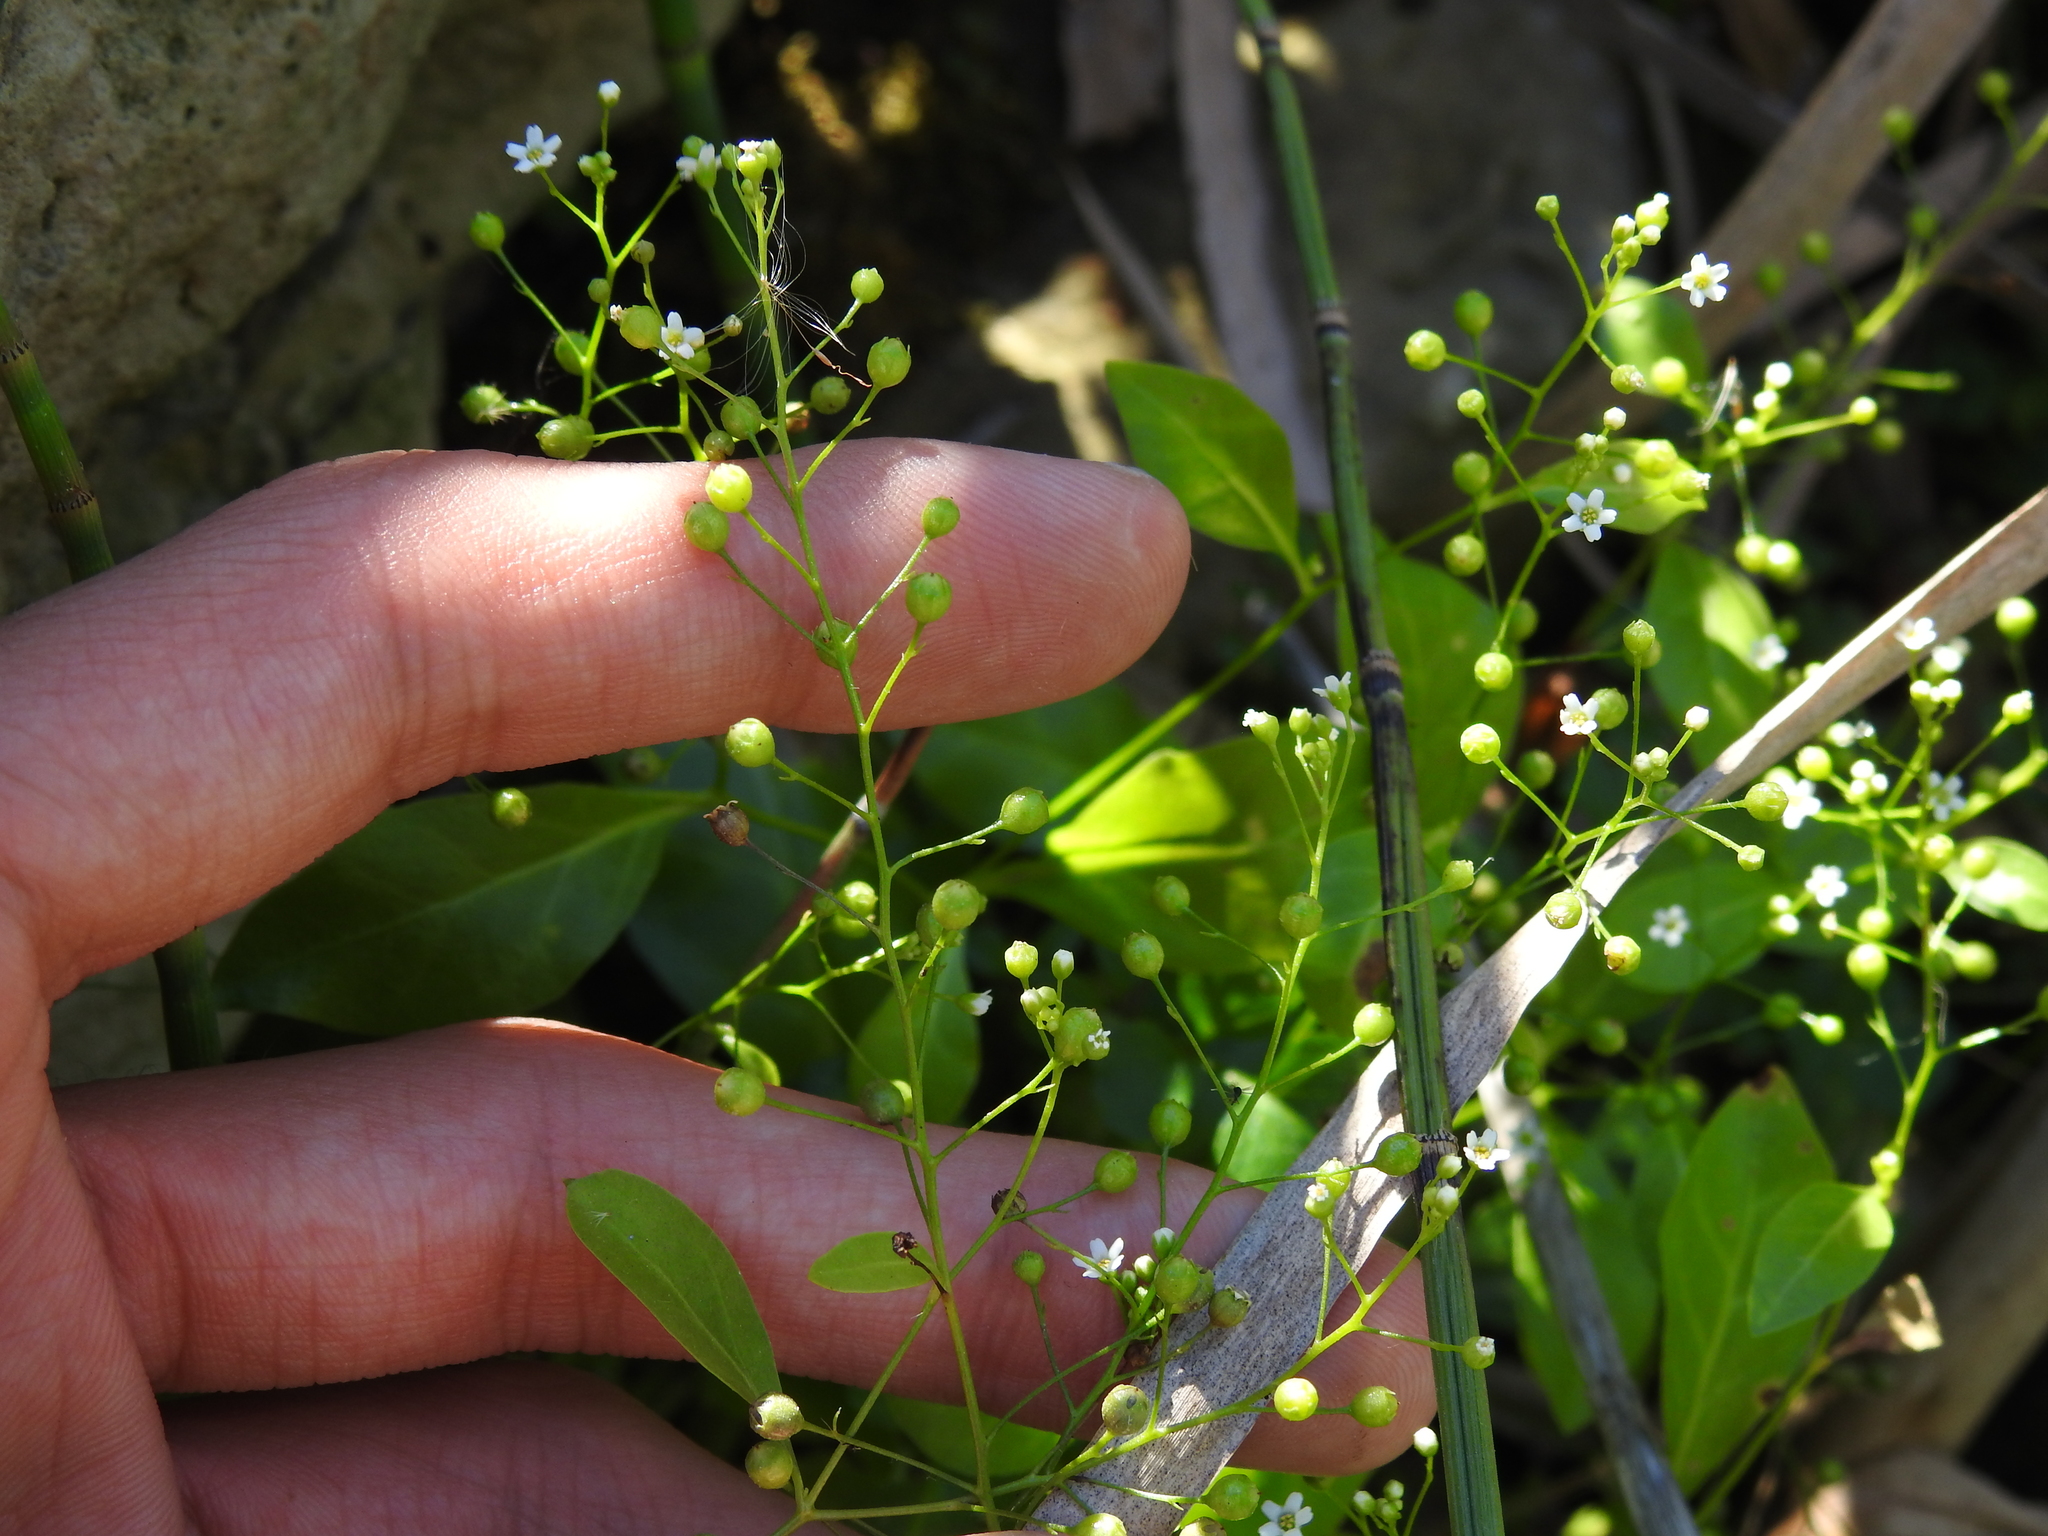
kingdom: Plantae
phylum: Tracheophyta
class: Magnoliopsida
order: Ericales
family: Primulaceae
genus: Samolus
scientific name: Samolus parviflorus
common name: False water pimpernel
